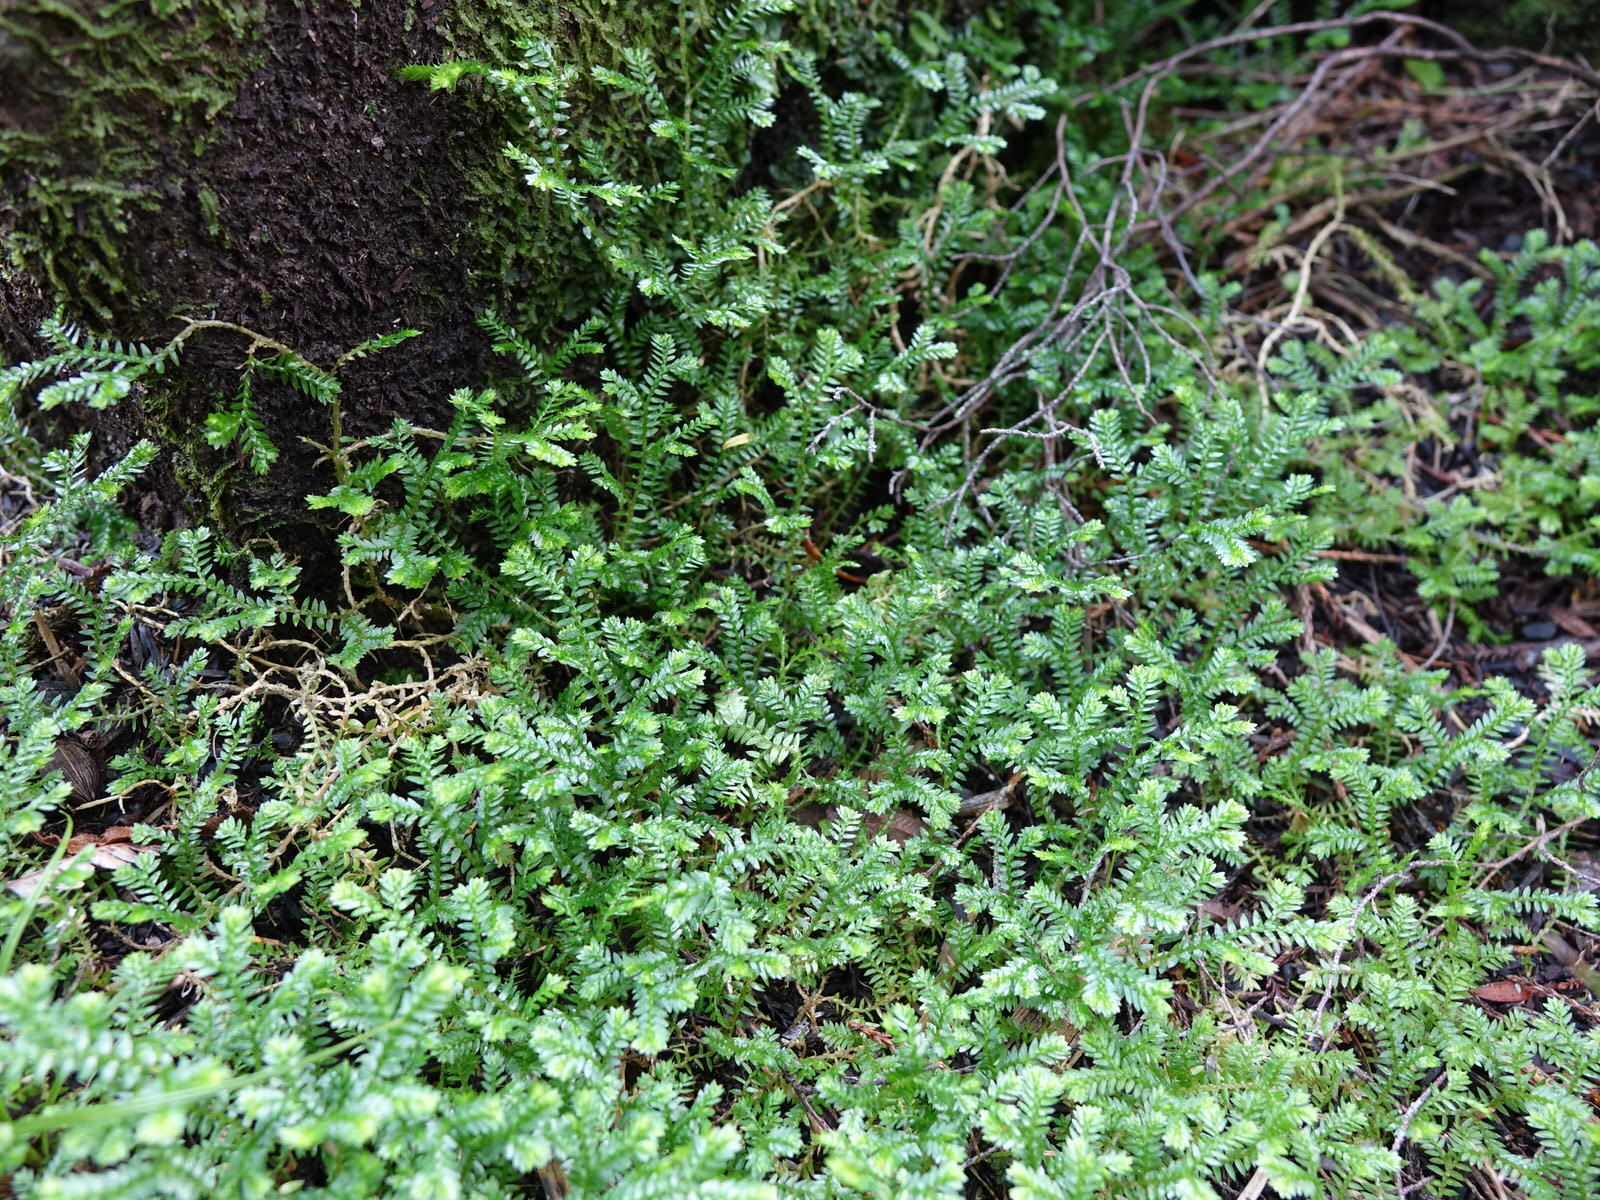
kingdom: Plantae
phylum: Tracheophyta
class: Lycopodiopsida
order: Selaginellales
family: Selaginellaceae
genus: Selaginella
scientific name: Selaginella kraussiana
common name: Krauss' spikemoss
